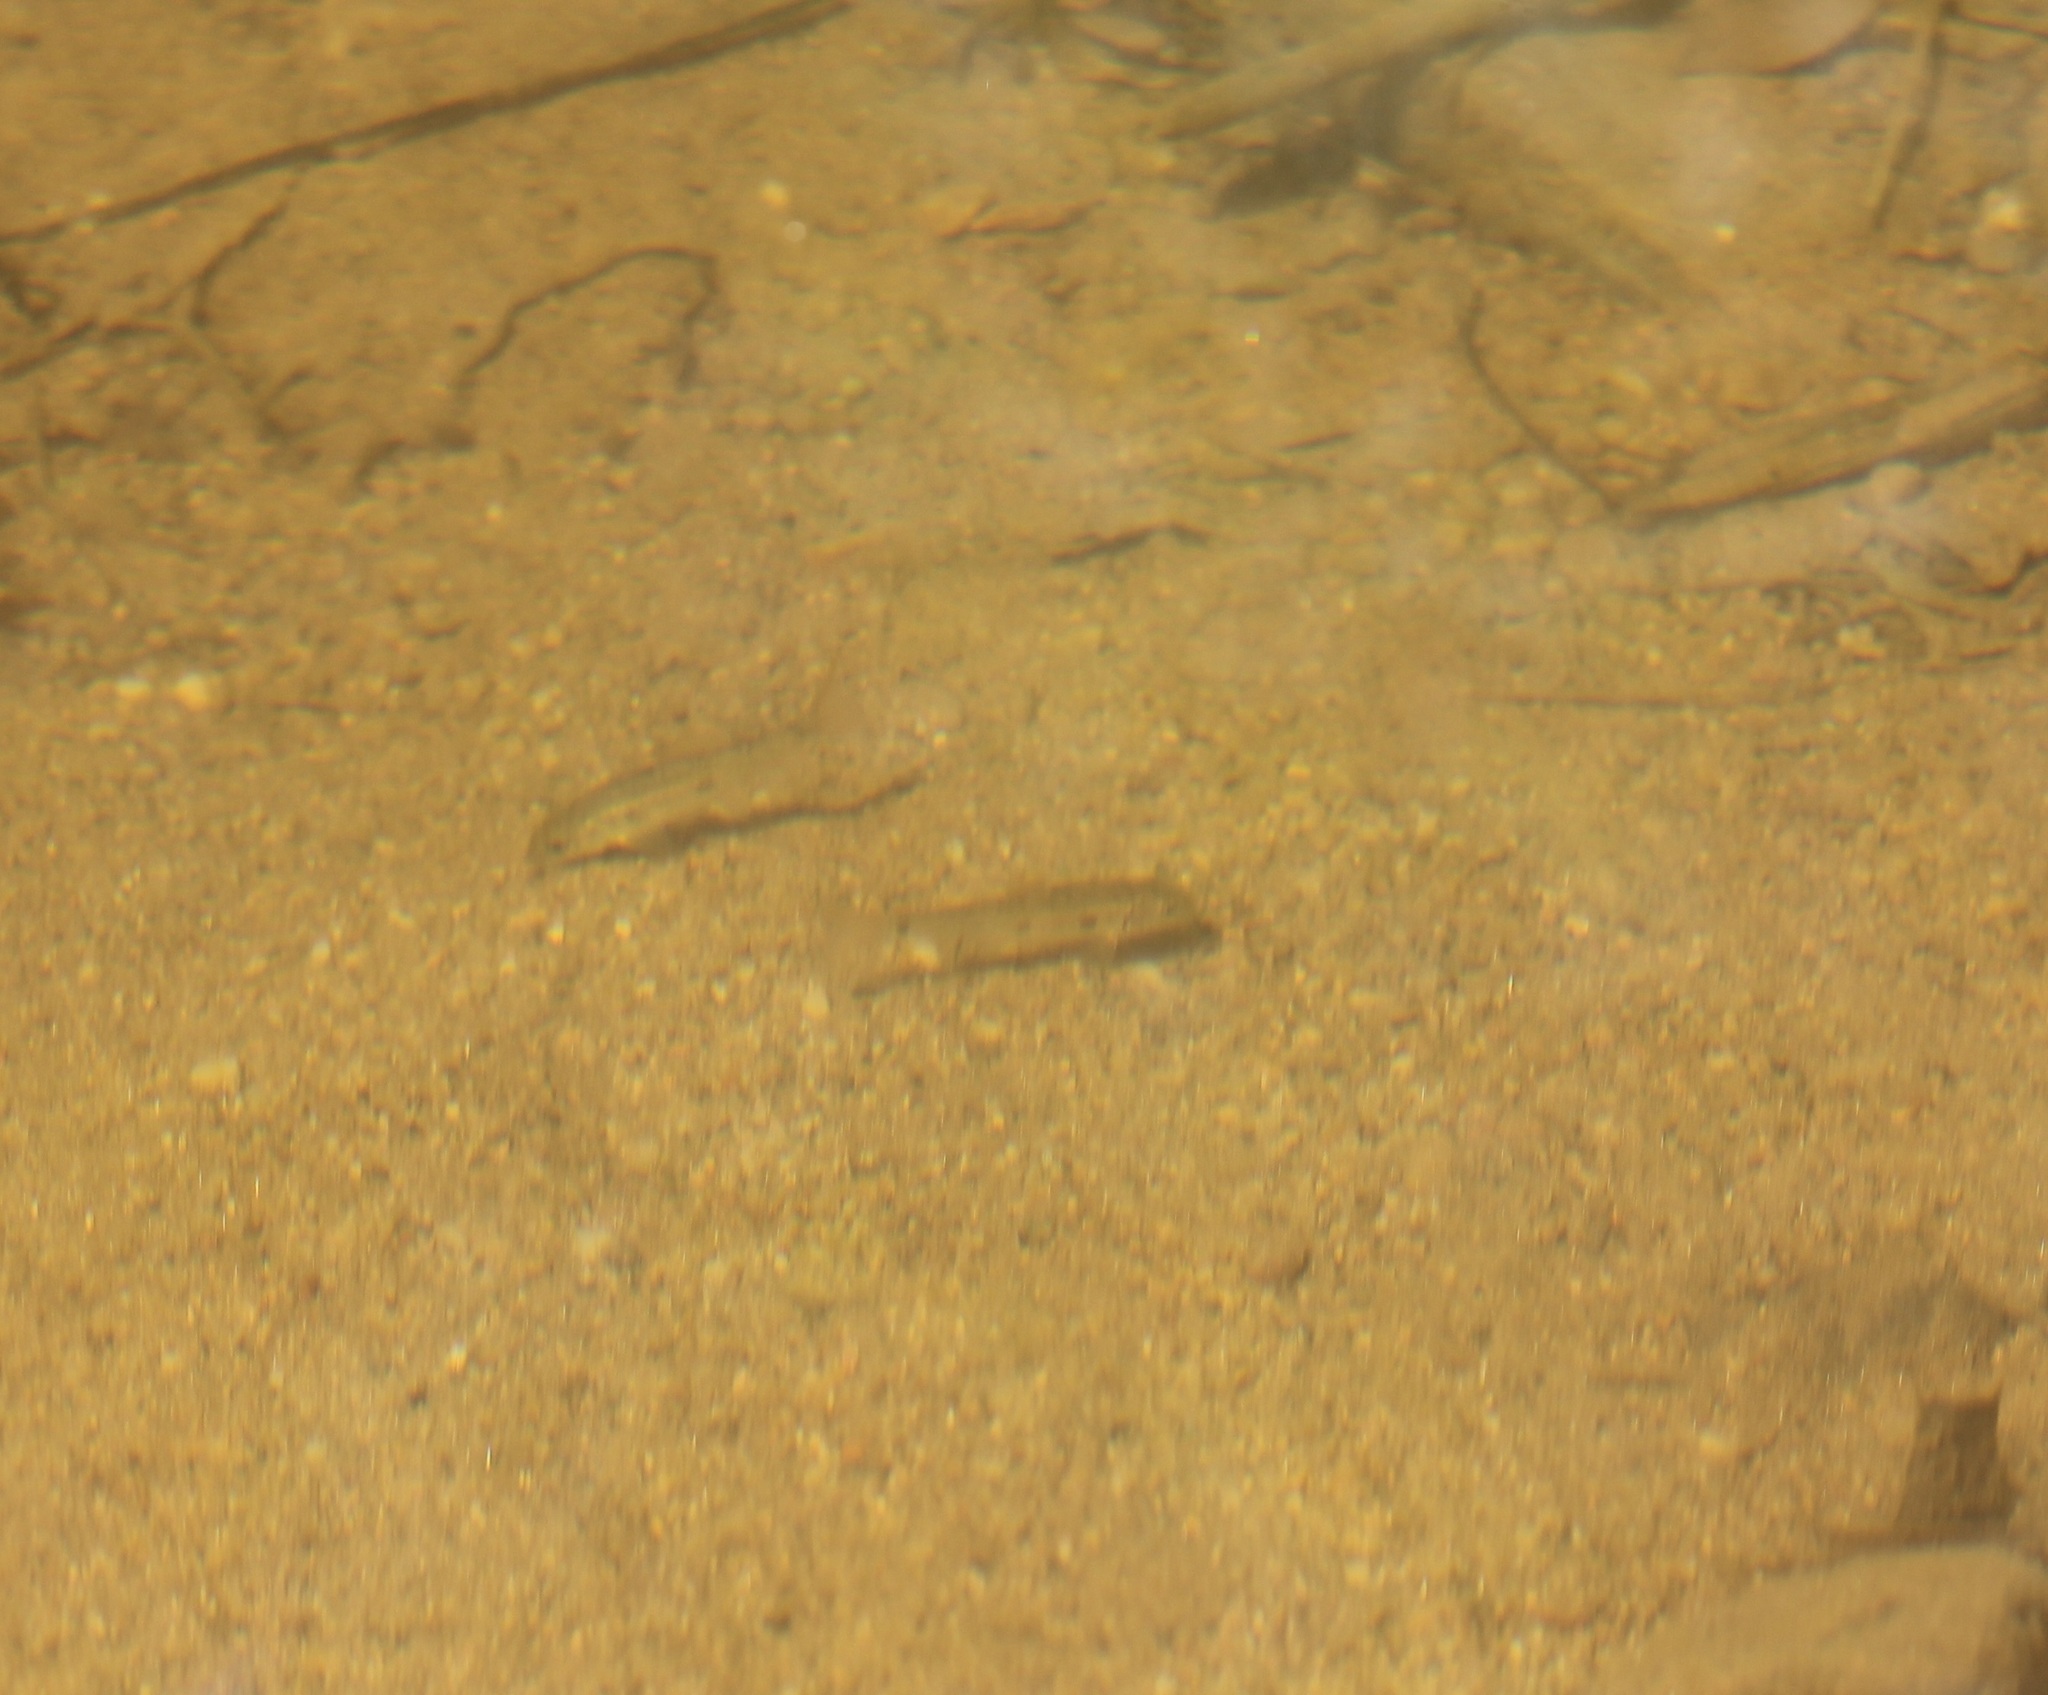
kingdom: Animalia
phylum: Chordata
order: Cypriniformes
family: Catostomidae
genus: Catostomus
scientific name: Catostomus commersonii
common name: White sucker
